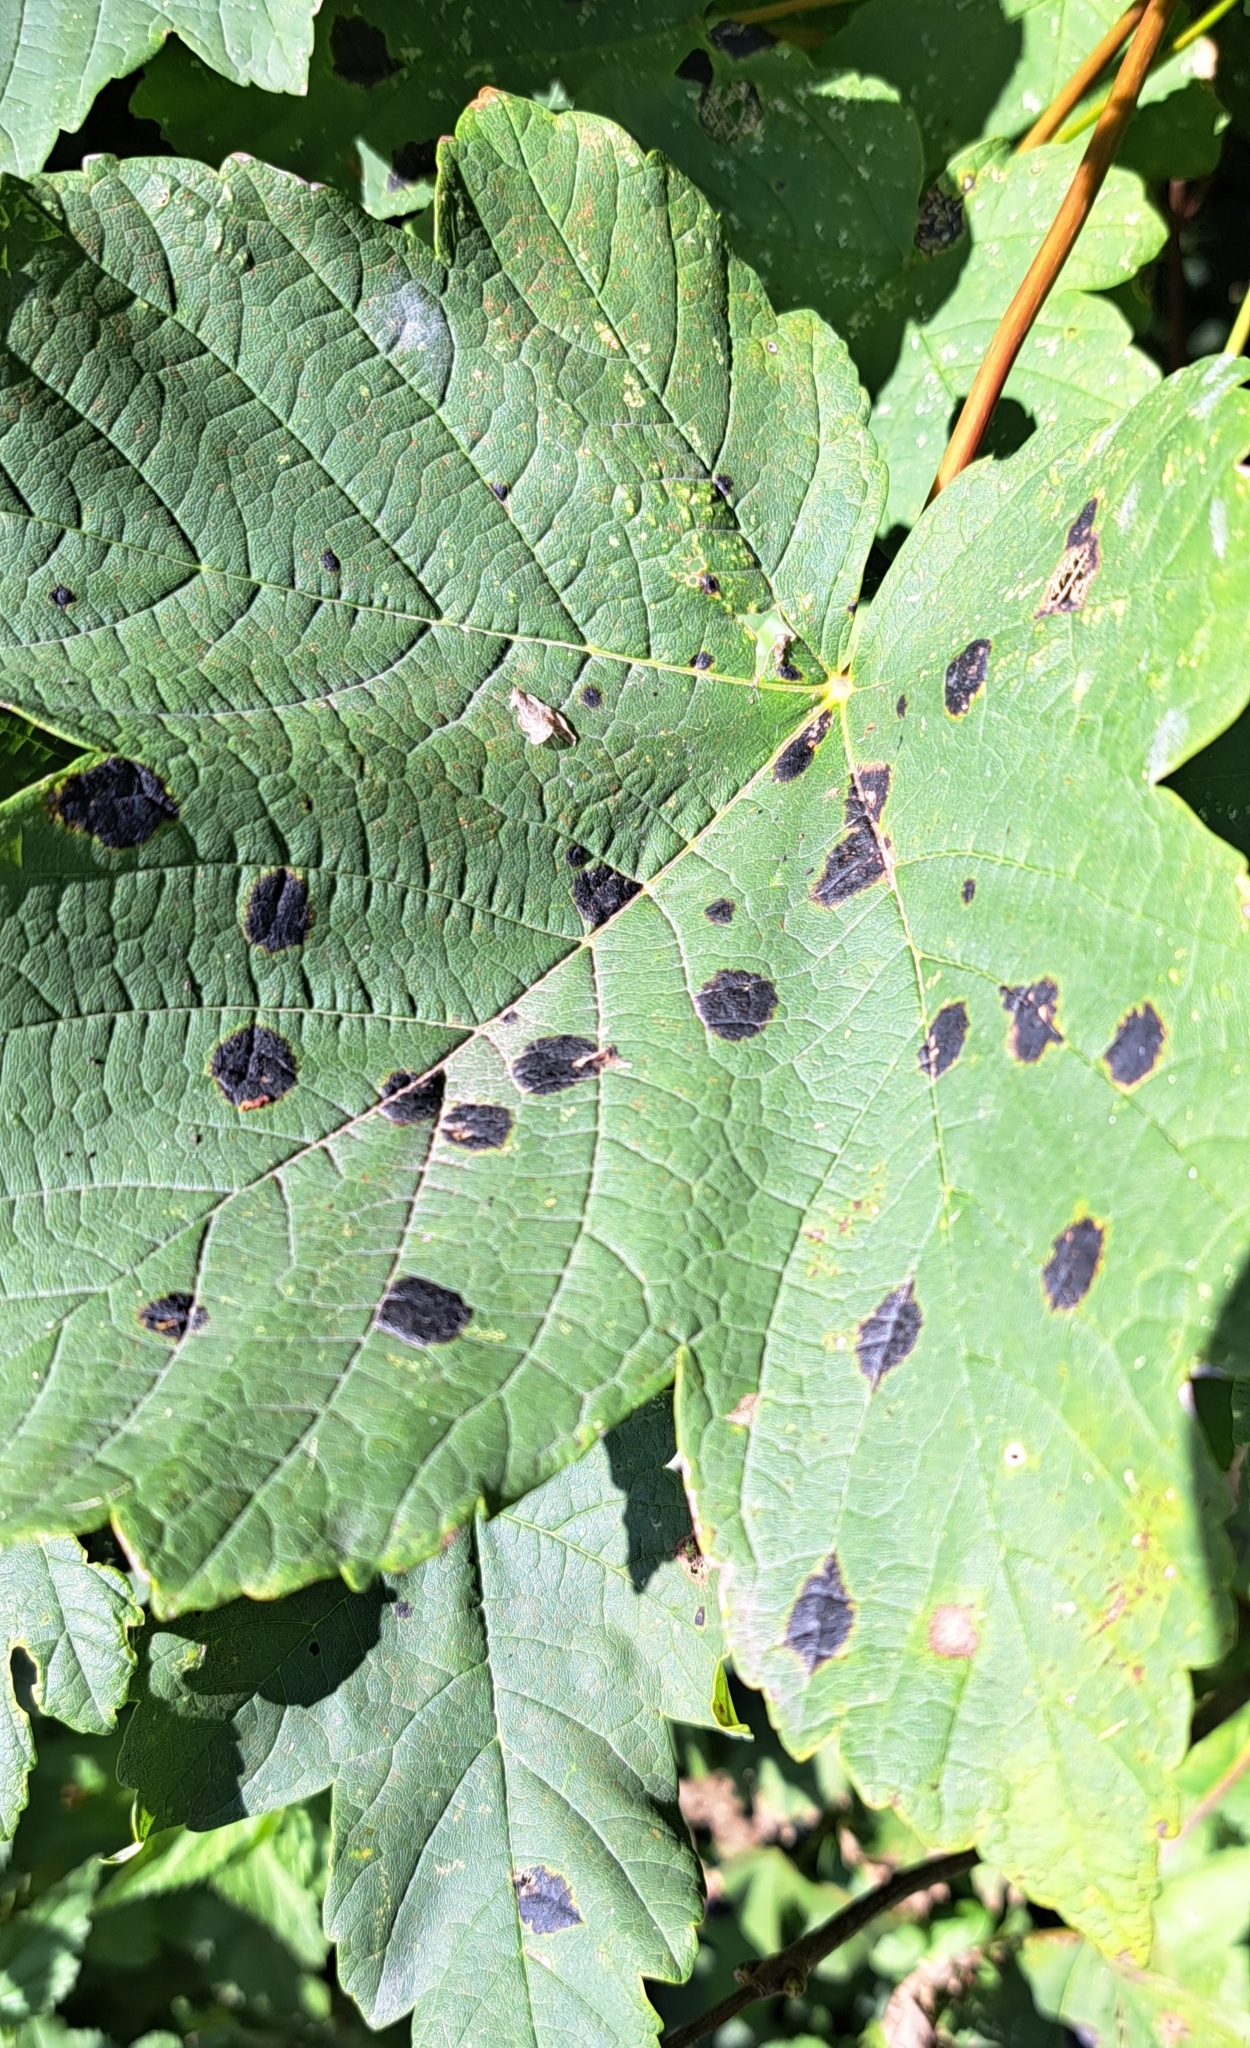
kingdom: Fungi
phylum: Ascomycota
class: Leotiomycetes
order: Rhytismatales
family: Rhytismataceae
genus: Rhytisma
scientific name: Rhytisma acerinum
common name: European tar spot
